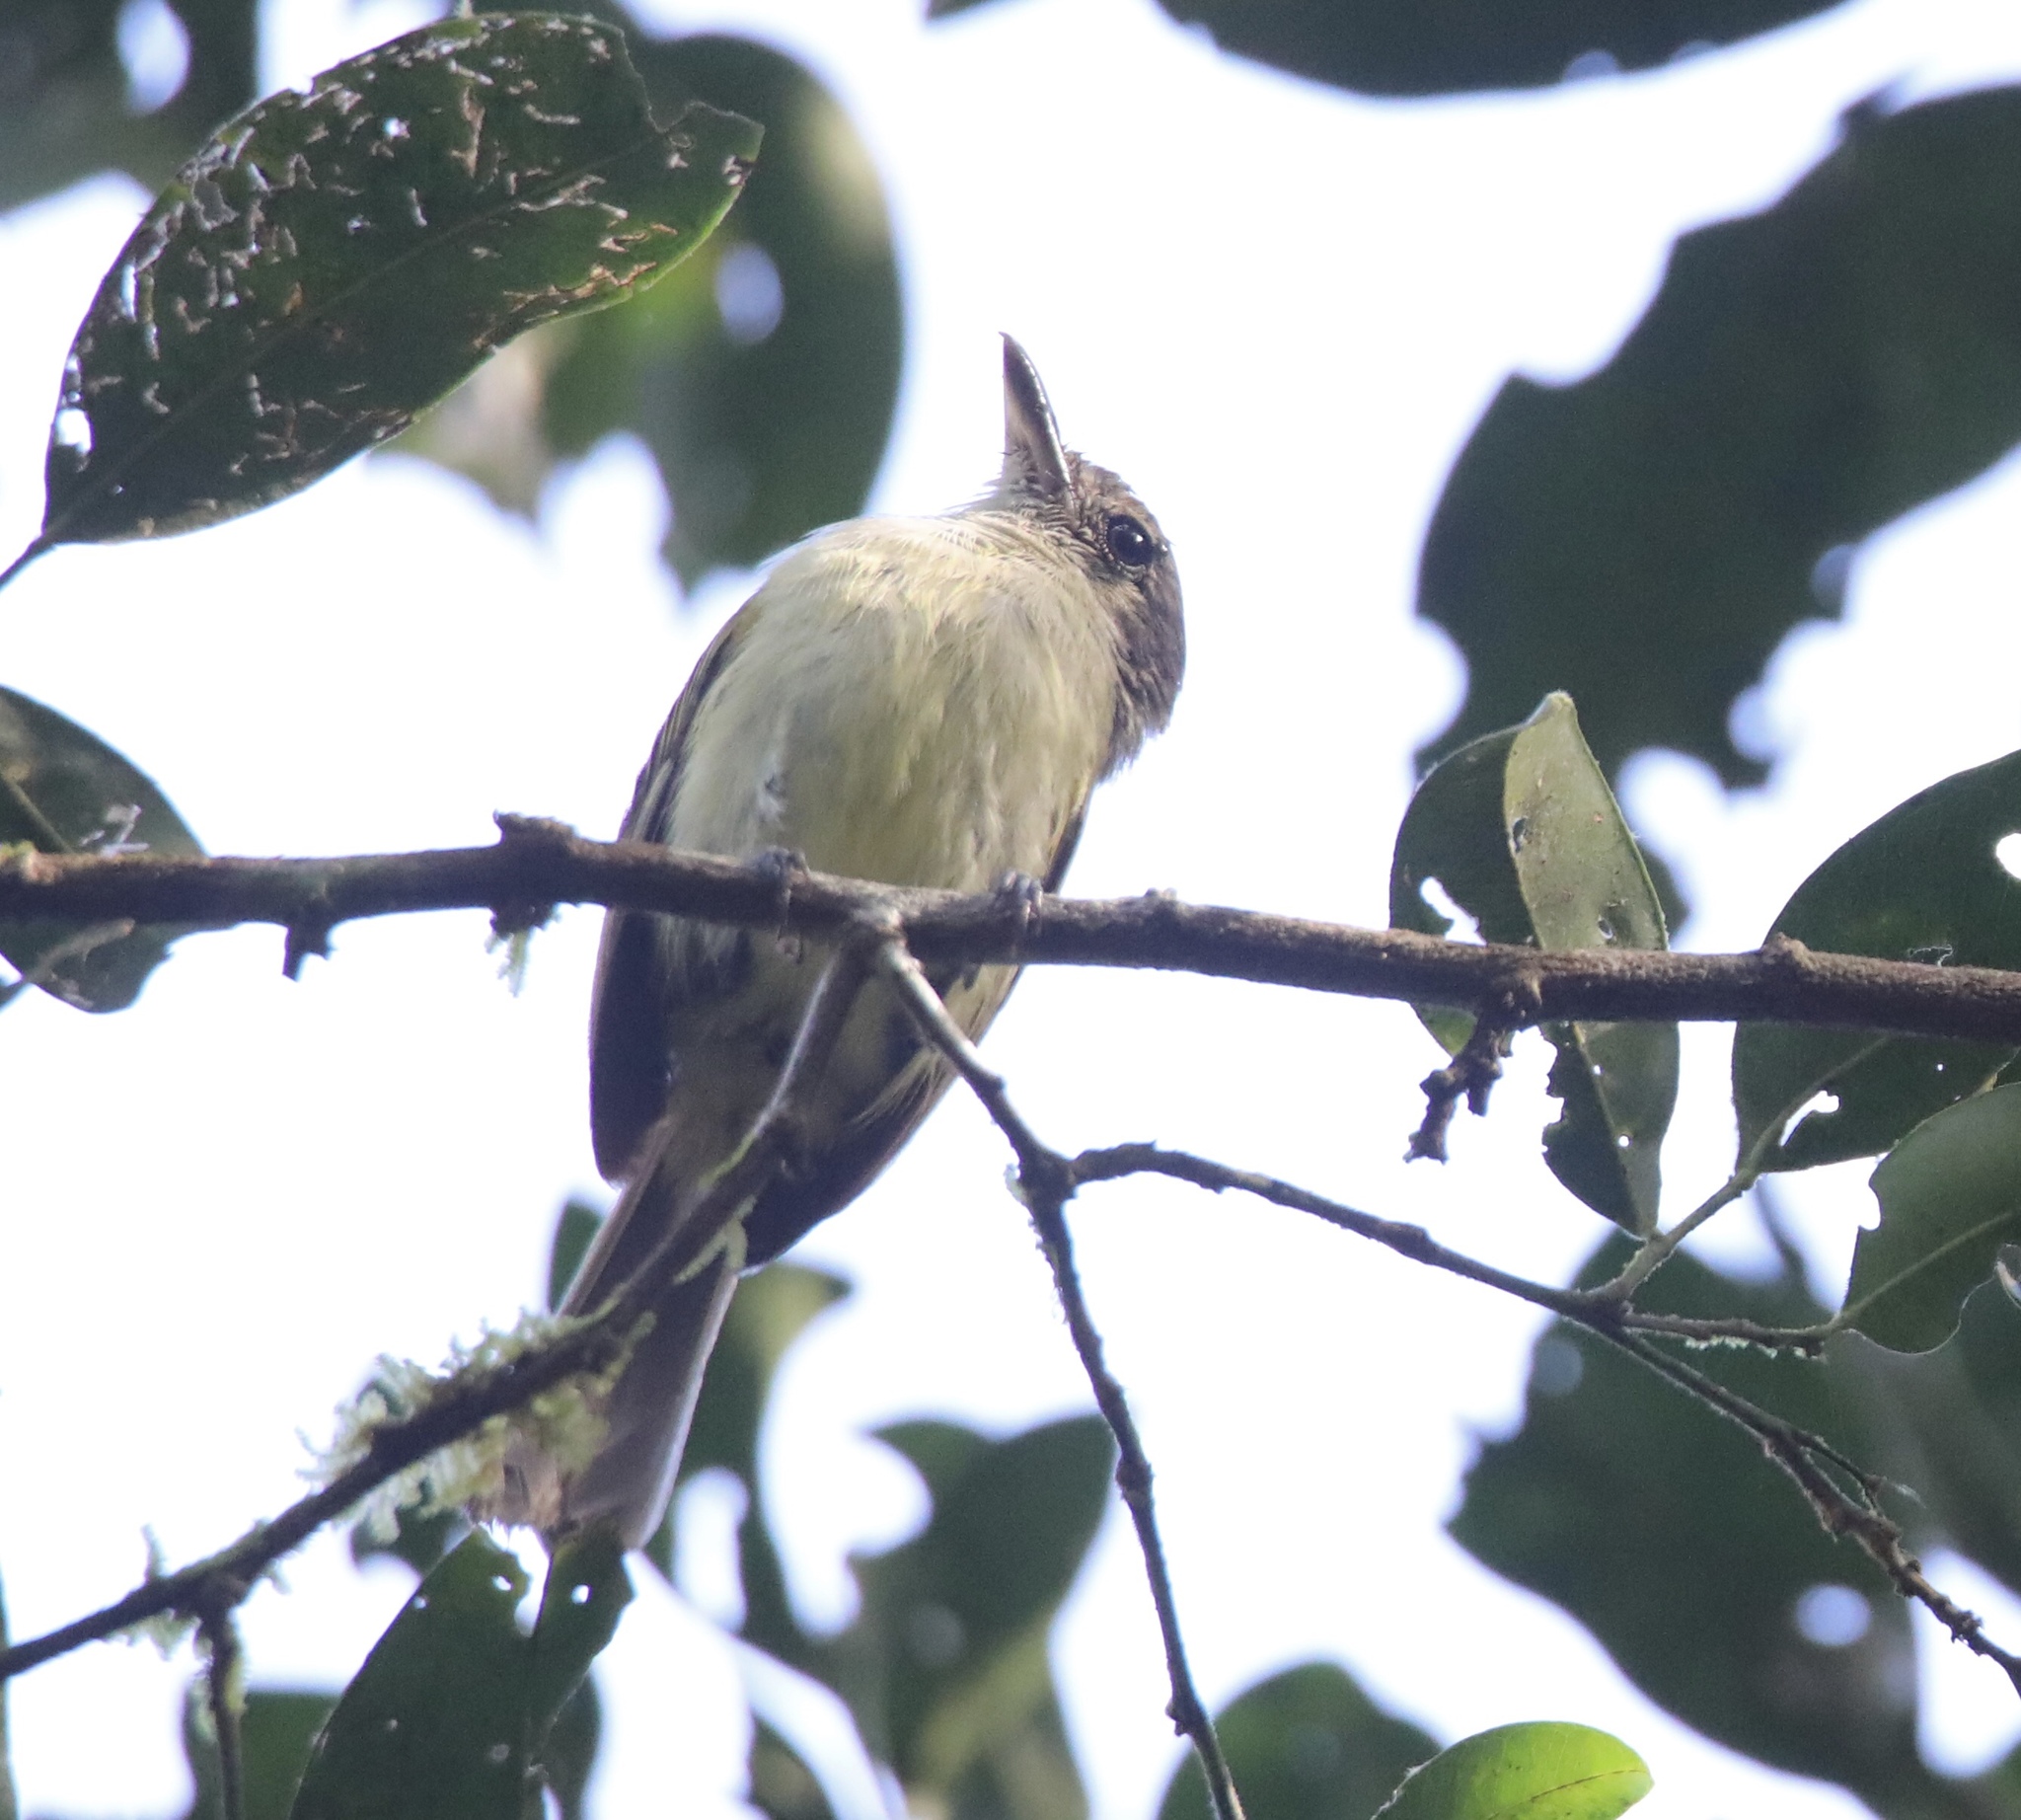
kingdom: Animalia
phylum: Chordata
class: Aves
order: Passeriformes
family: Tyrannidae
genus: Tolmomyias
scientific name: Tolmomyias sulphurescens
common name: Yellow-olive flycatcher
